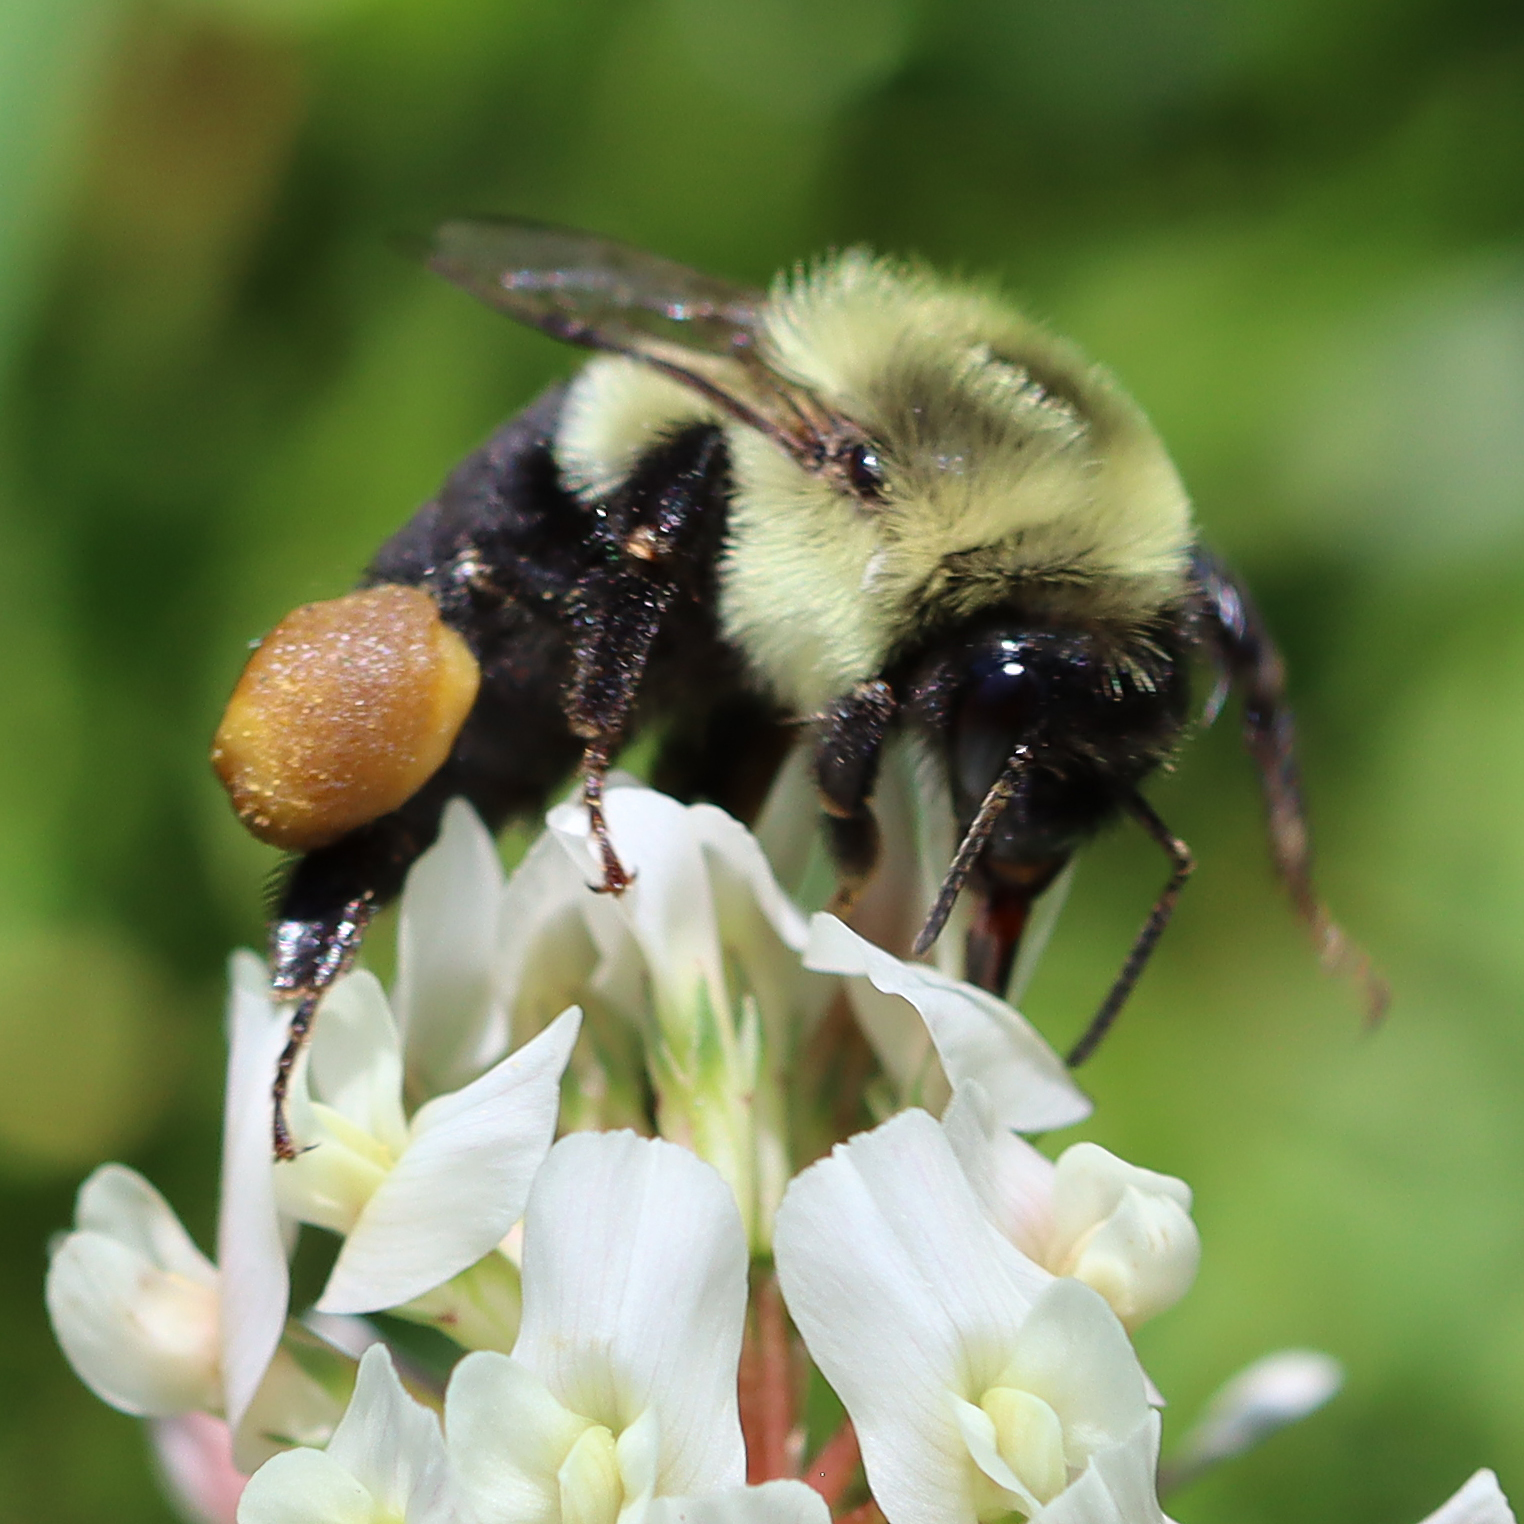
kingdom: Animalia
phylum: Arthropoda
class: Insecta
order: Hymenoptera
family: Apidae
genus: Bombus
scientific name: Bombus impatiens
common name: Common eastern bumble bee
